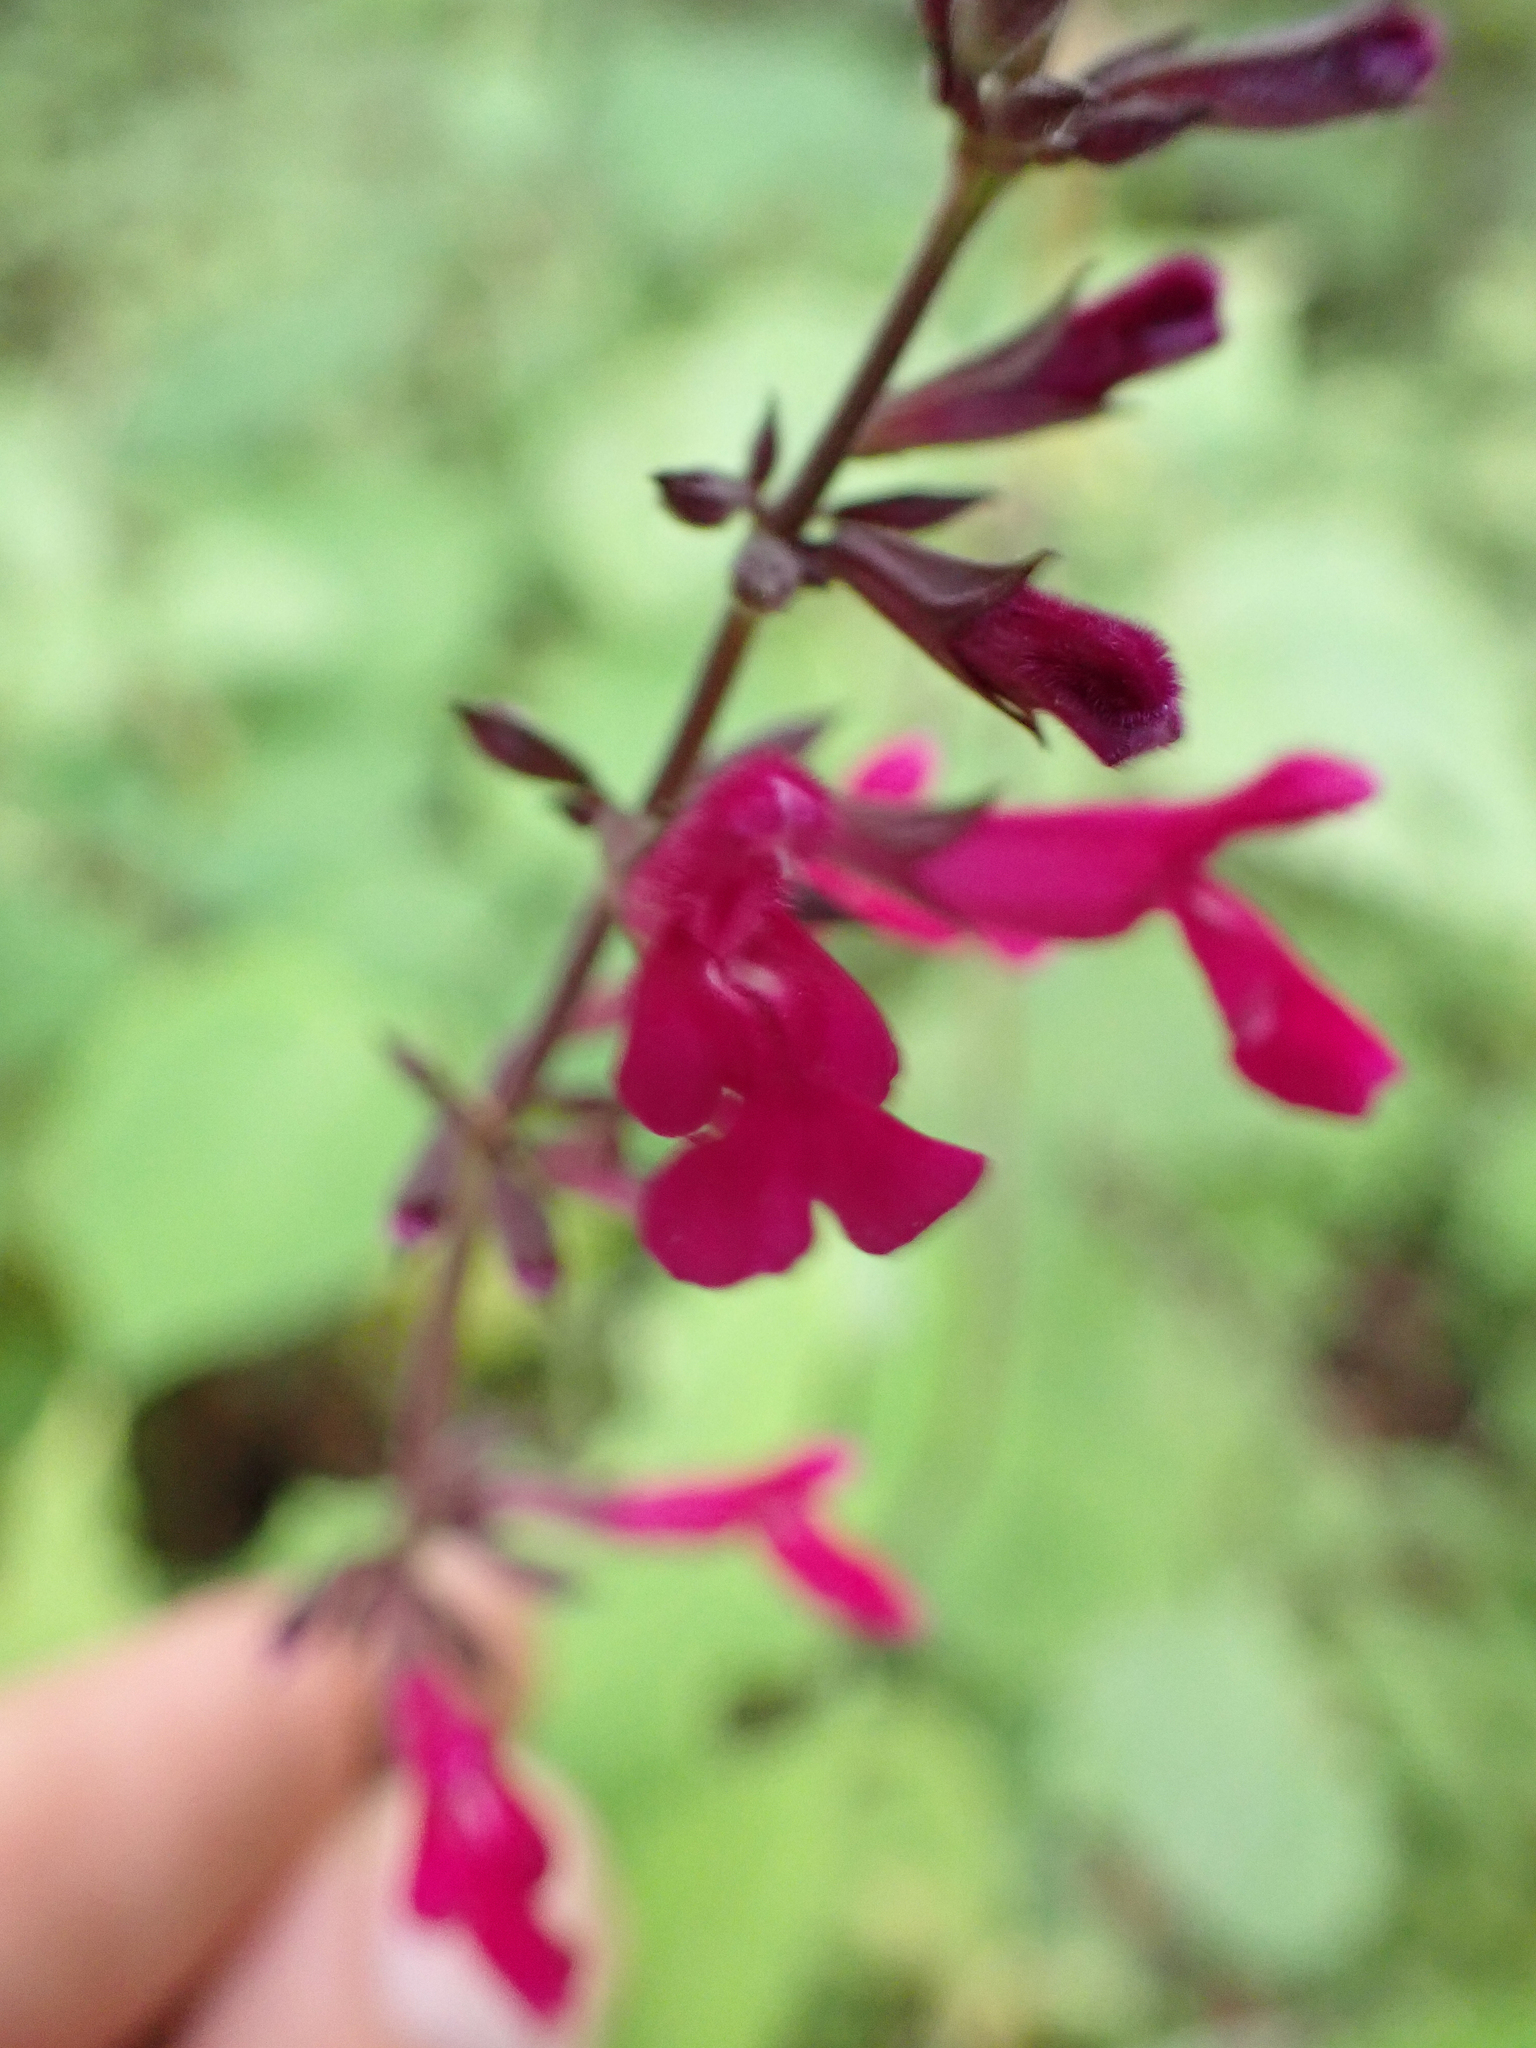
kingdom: Plantae
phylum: Tracheophyta
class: Magnoliopsida
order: Lamiales
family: Lamiaceae
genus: Salvia
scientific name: Salvia carnea
